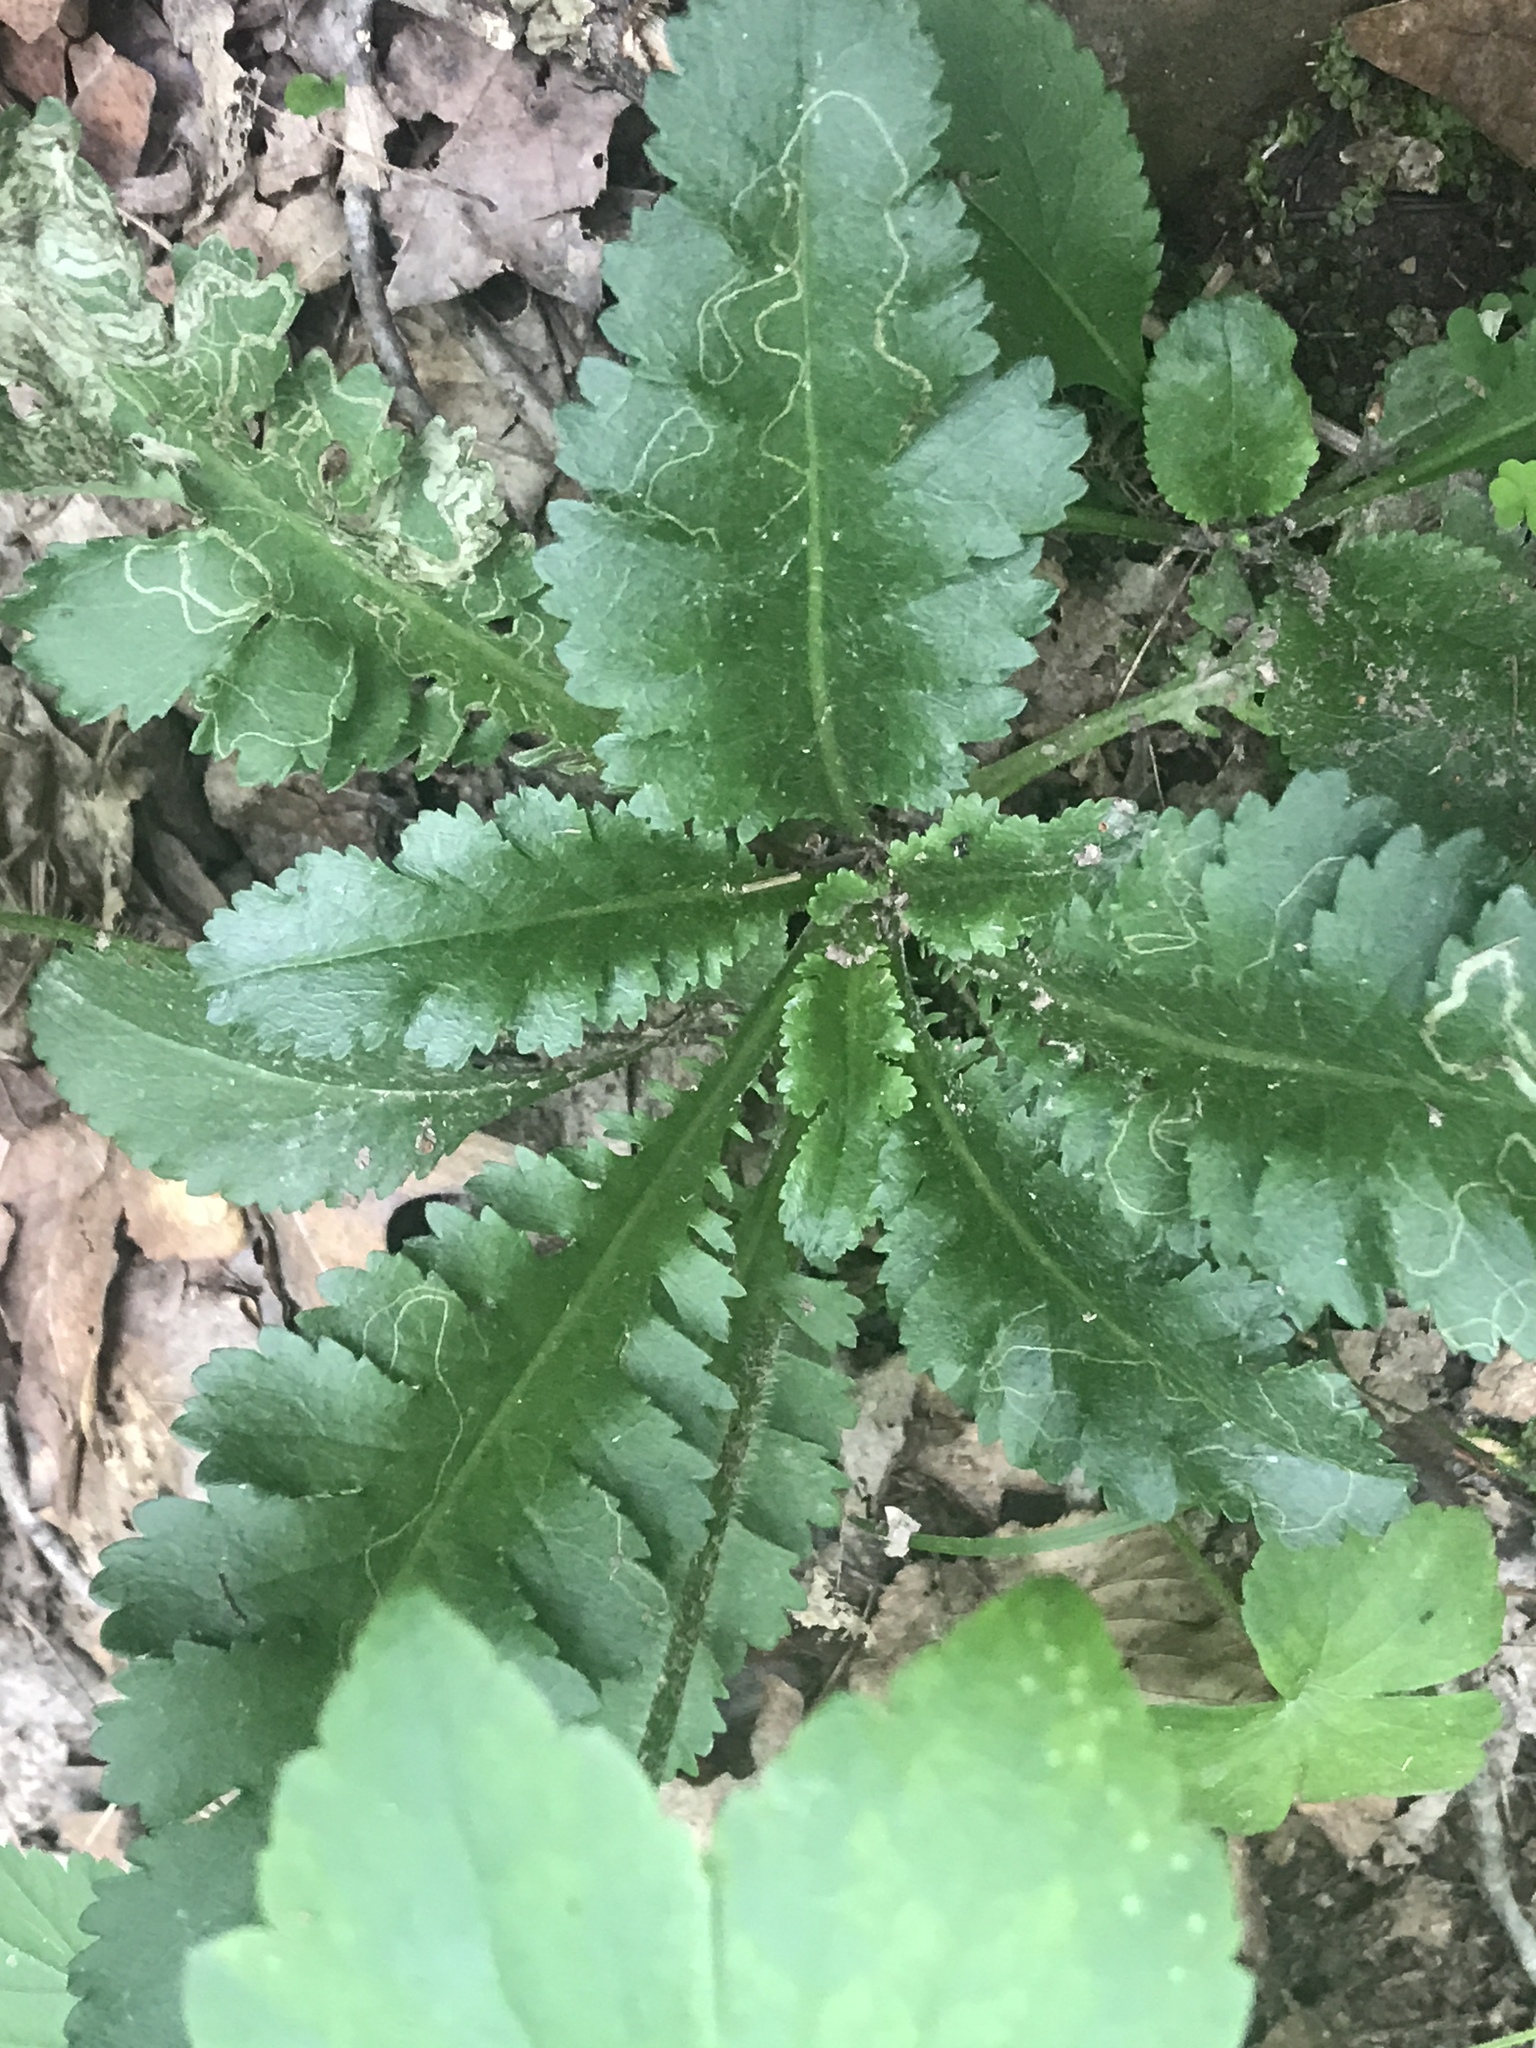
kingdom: Plantae
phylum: Tracheophyta
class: Magnoliopsida
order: Lamiales
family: Orobanchaceae
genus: Pedicularis
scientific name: Pedicularis canadensis
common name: Early lousewort
